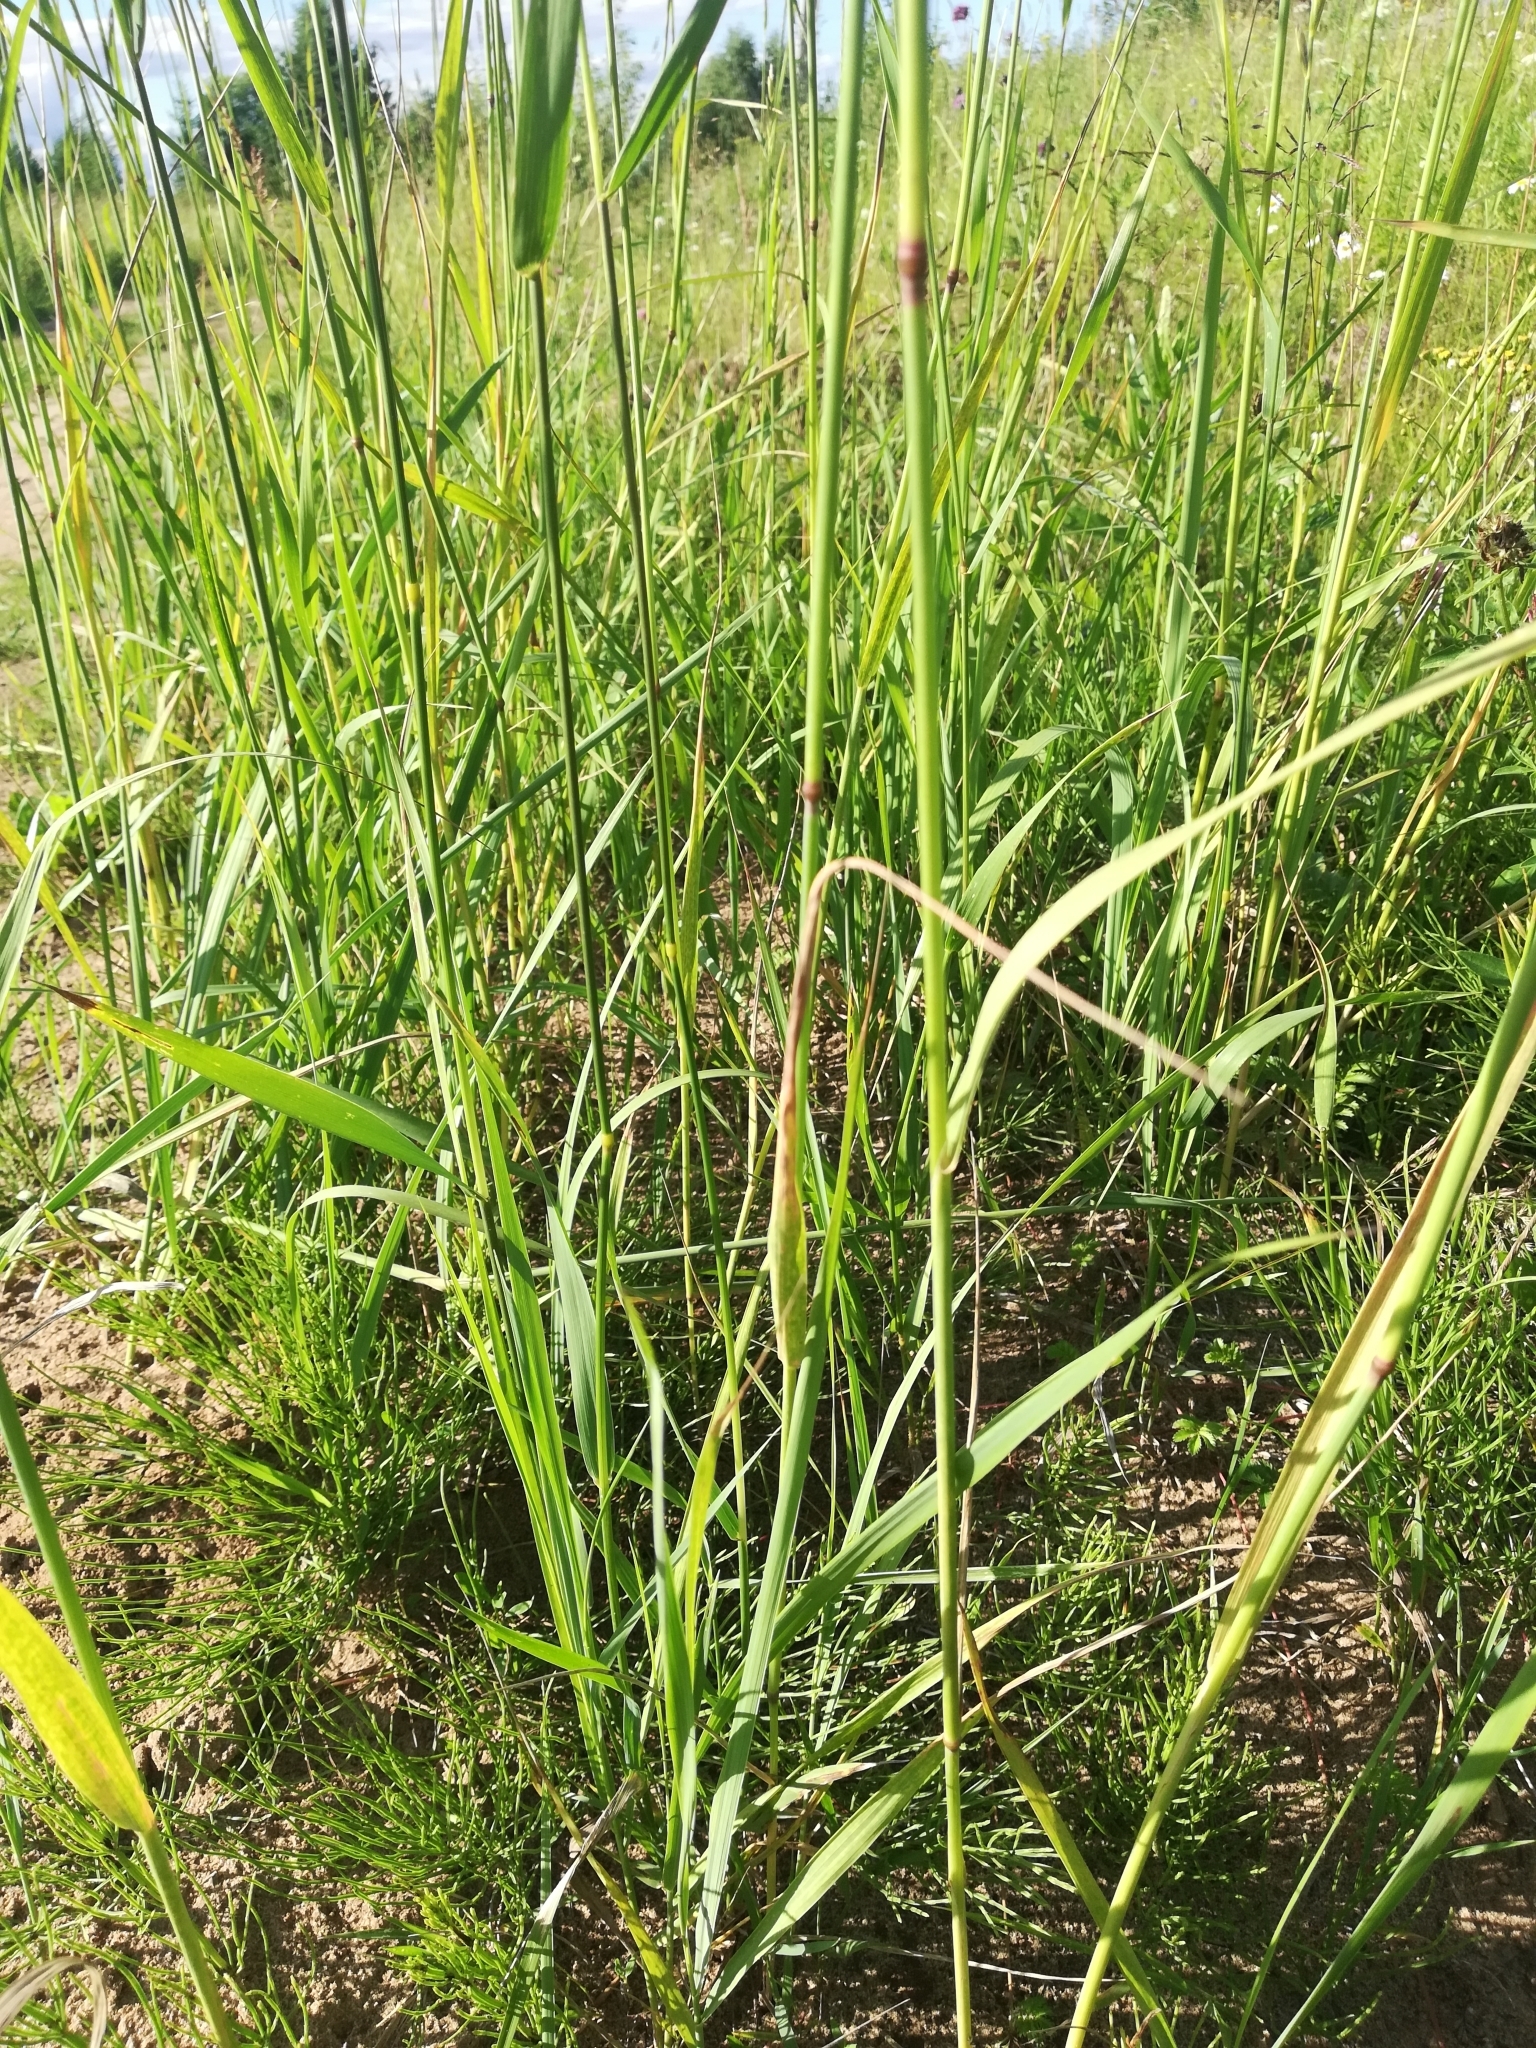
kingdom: Plantae
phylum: Tracheophyta
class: Liliopsida
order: Poales
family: Poaceae
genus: Calamagrostis
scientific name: Calamagrostis epigejos
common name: Wood small-reed
